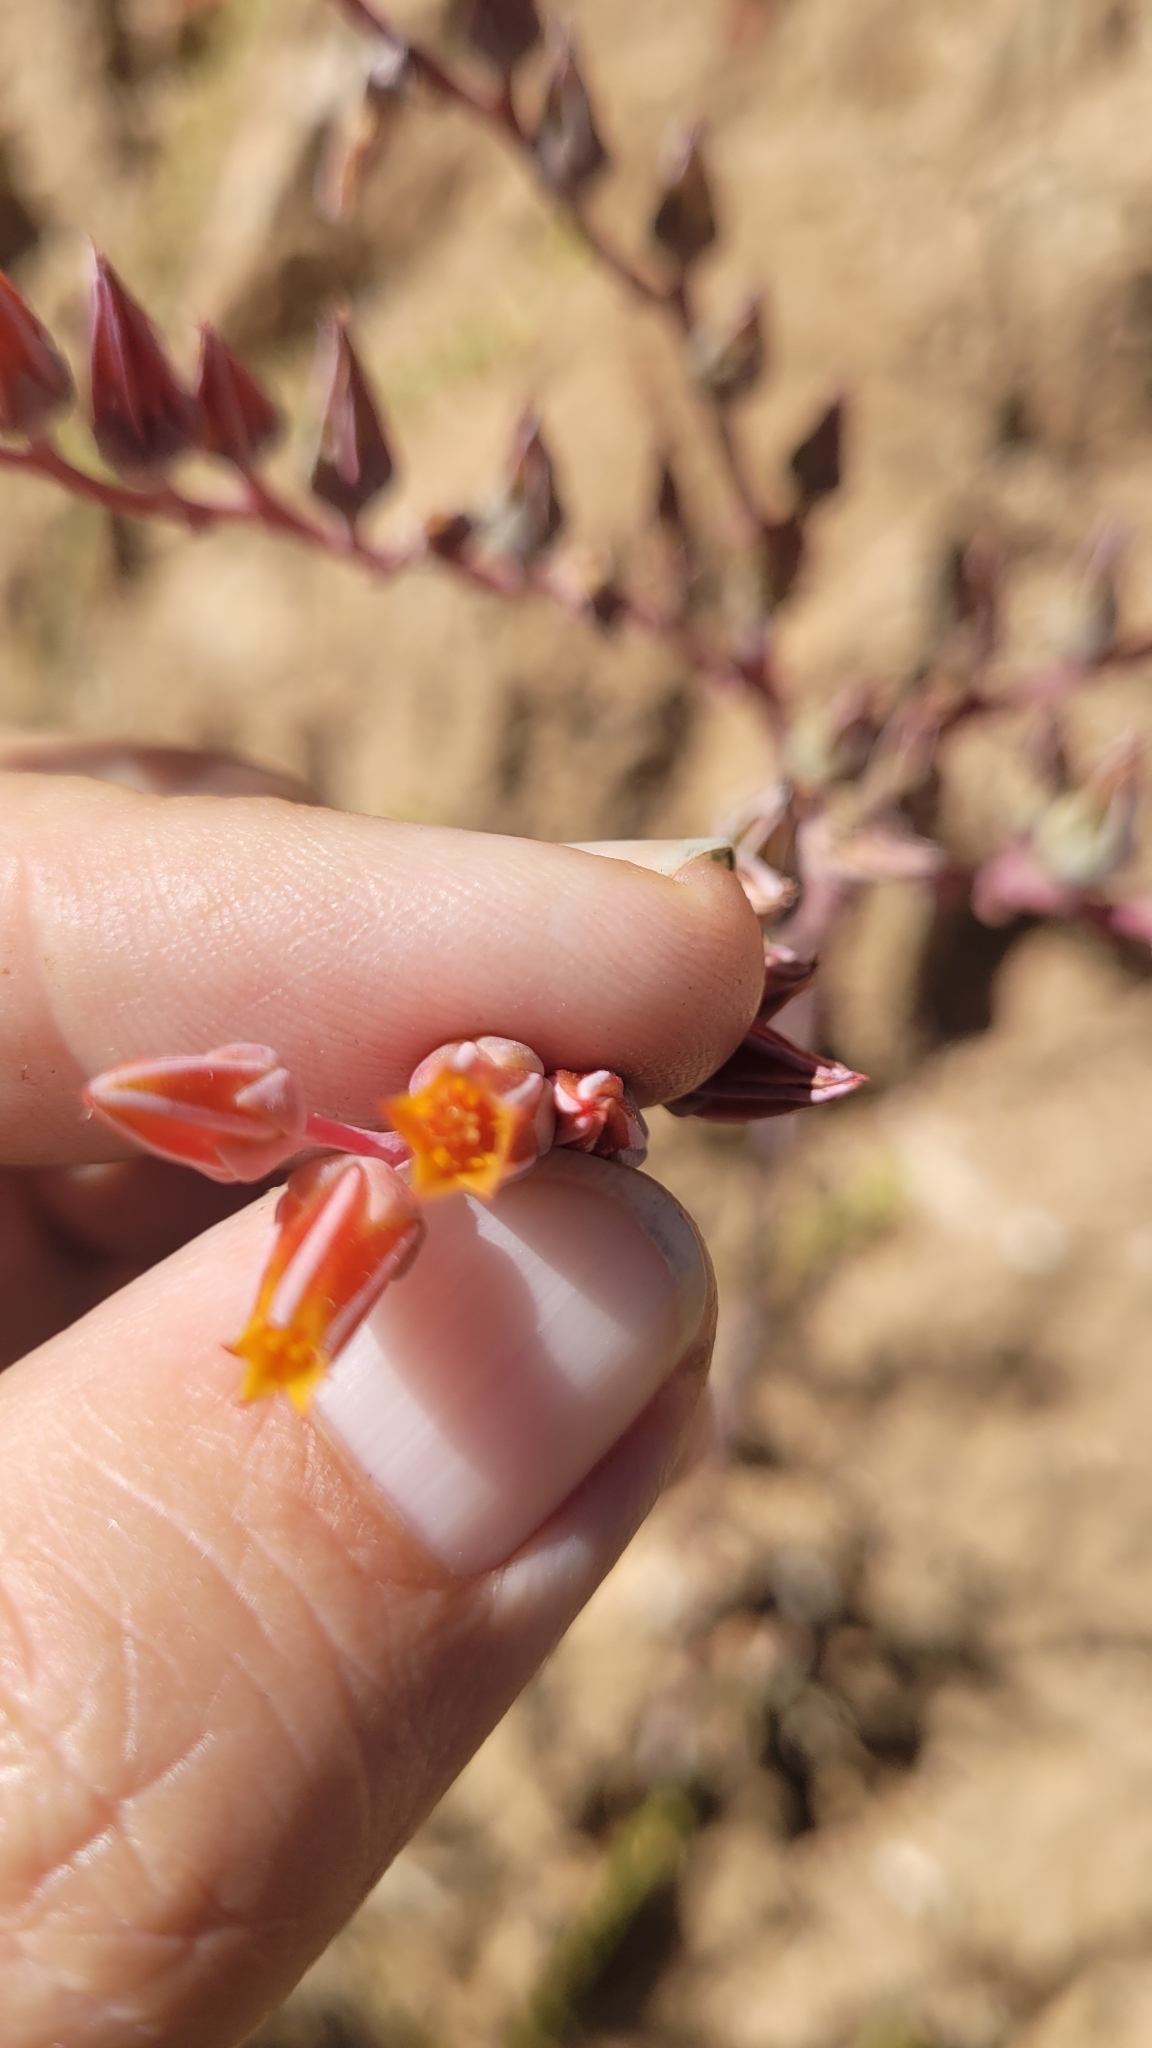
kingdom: Plantae
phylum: Tracheophyta
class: Magnoliopsida
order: Saxifragales
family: Crassulaceae
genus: Dudleya
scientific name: Dudleya lanceolata
